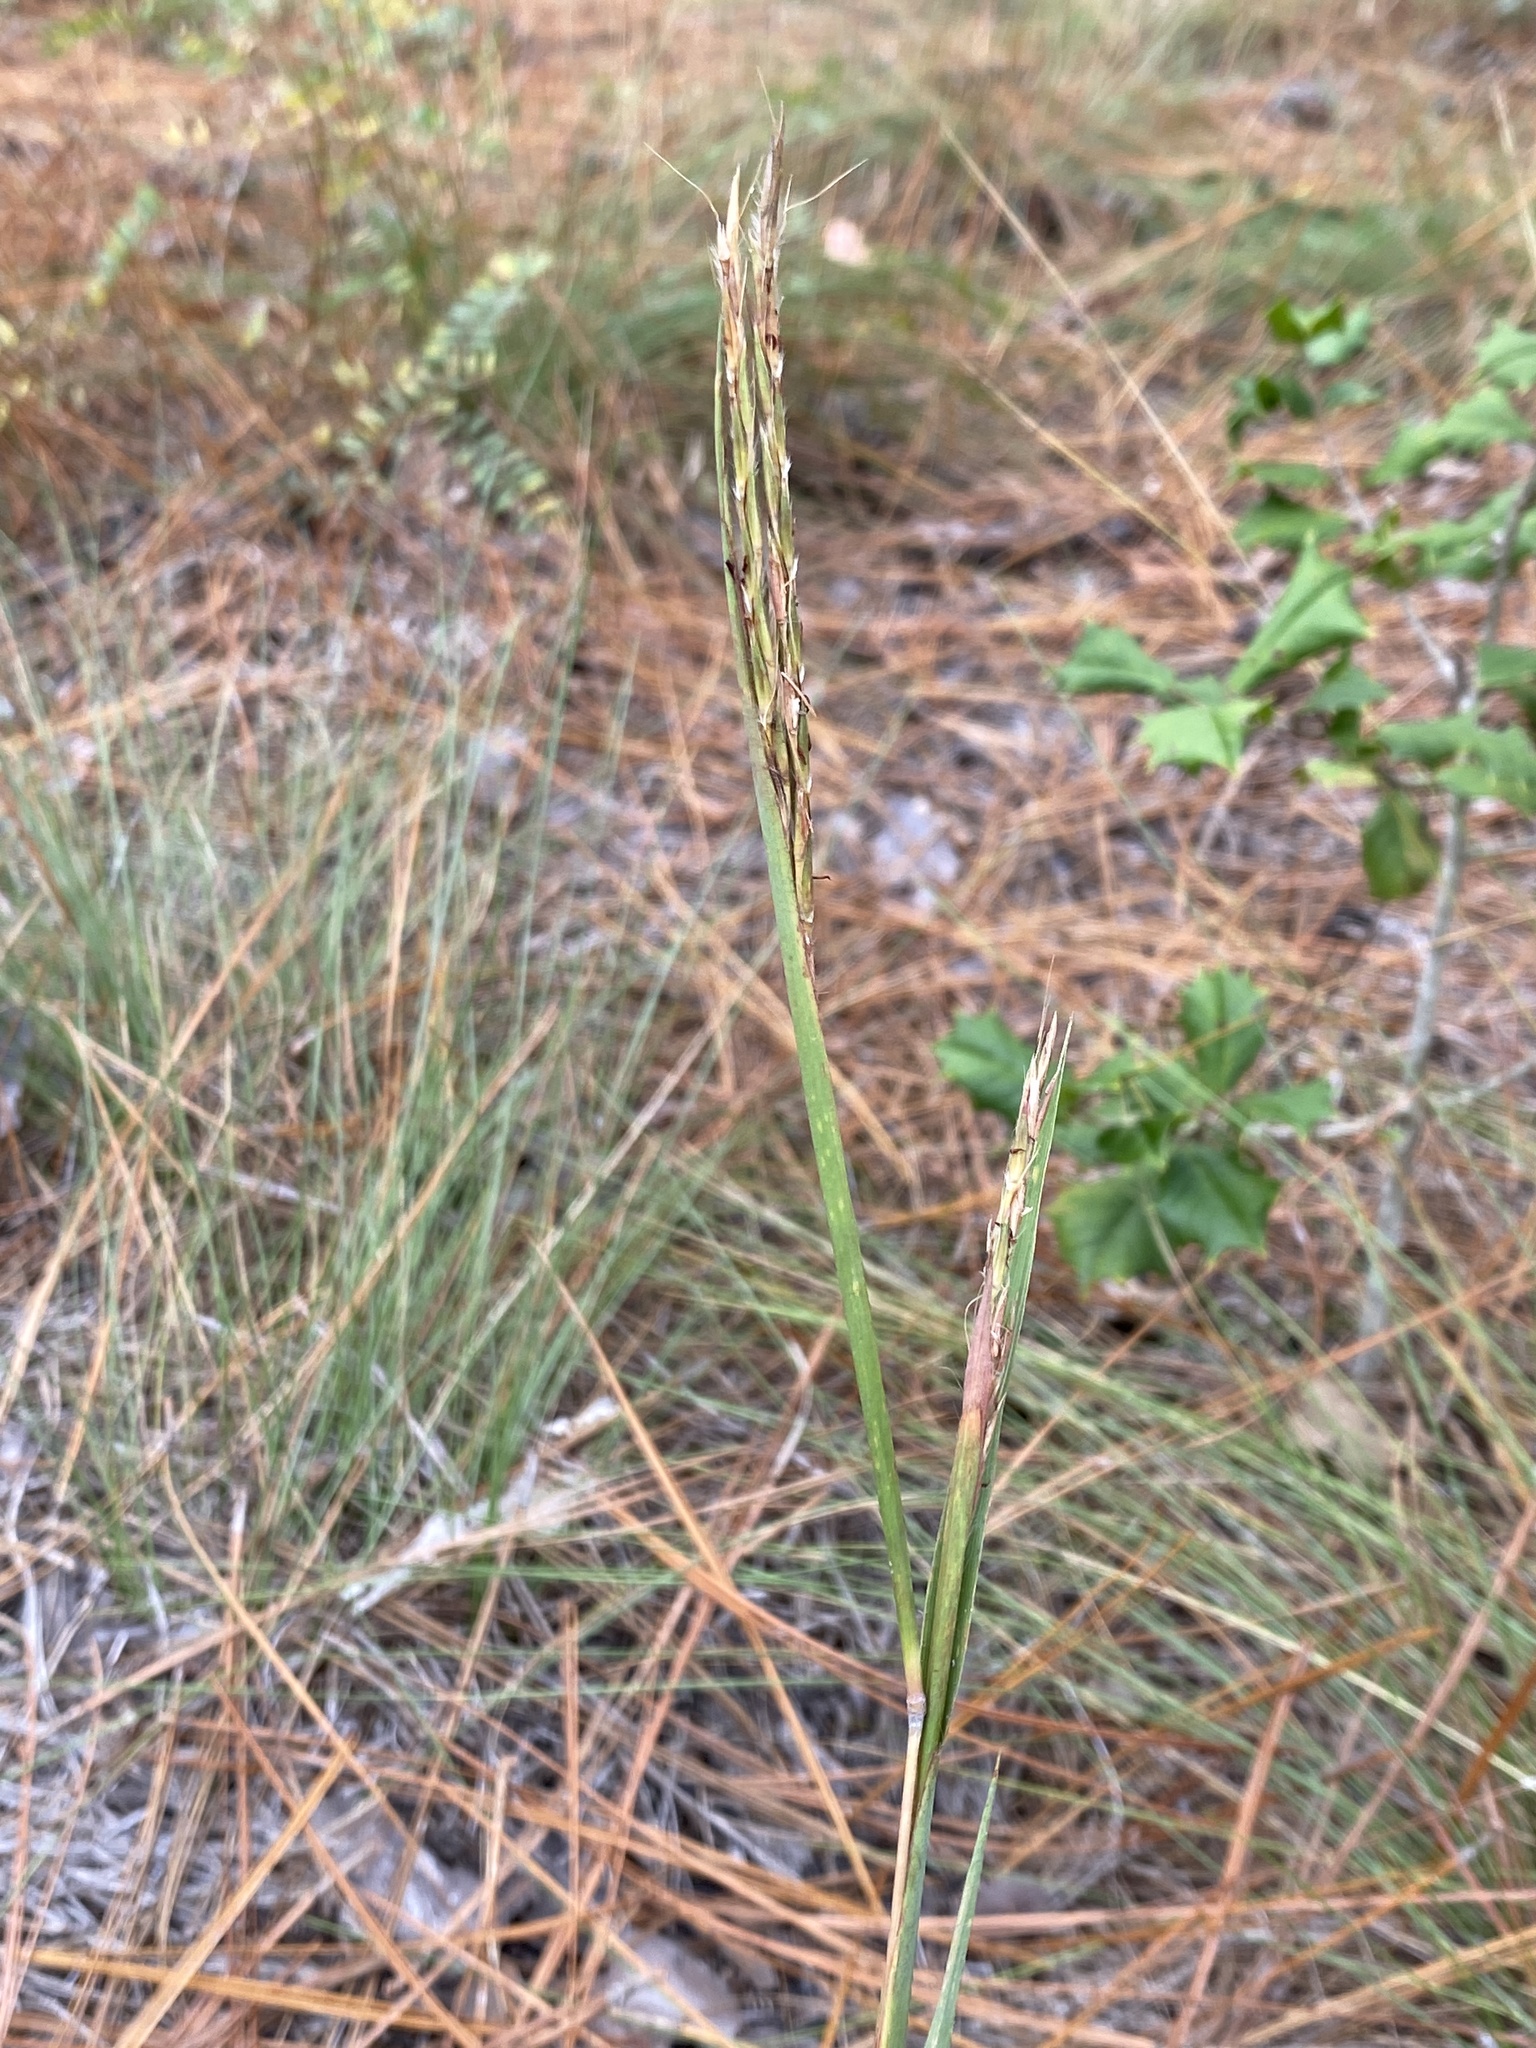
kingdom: Plantae
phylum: Tracheophyta
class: Liliopsida
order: Poales
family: Poaceae
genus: Andropogon
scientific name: Andropogon gerardi
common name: Big bluestem
